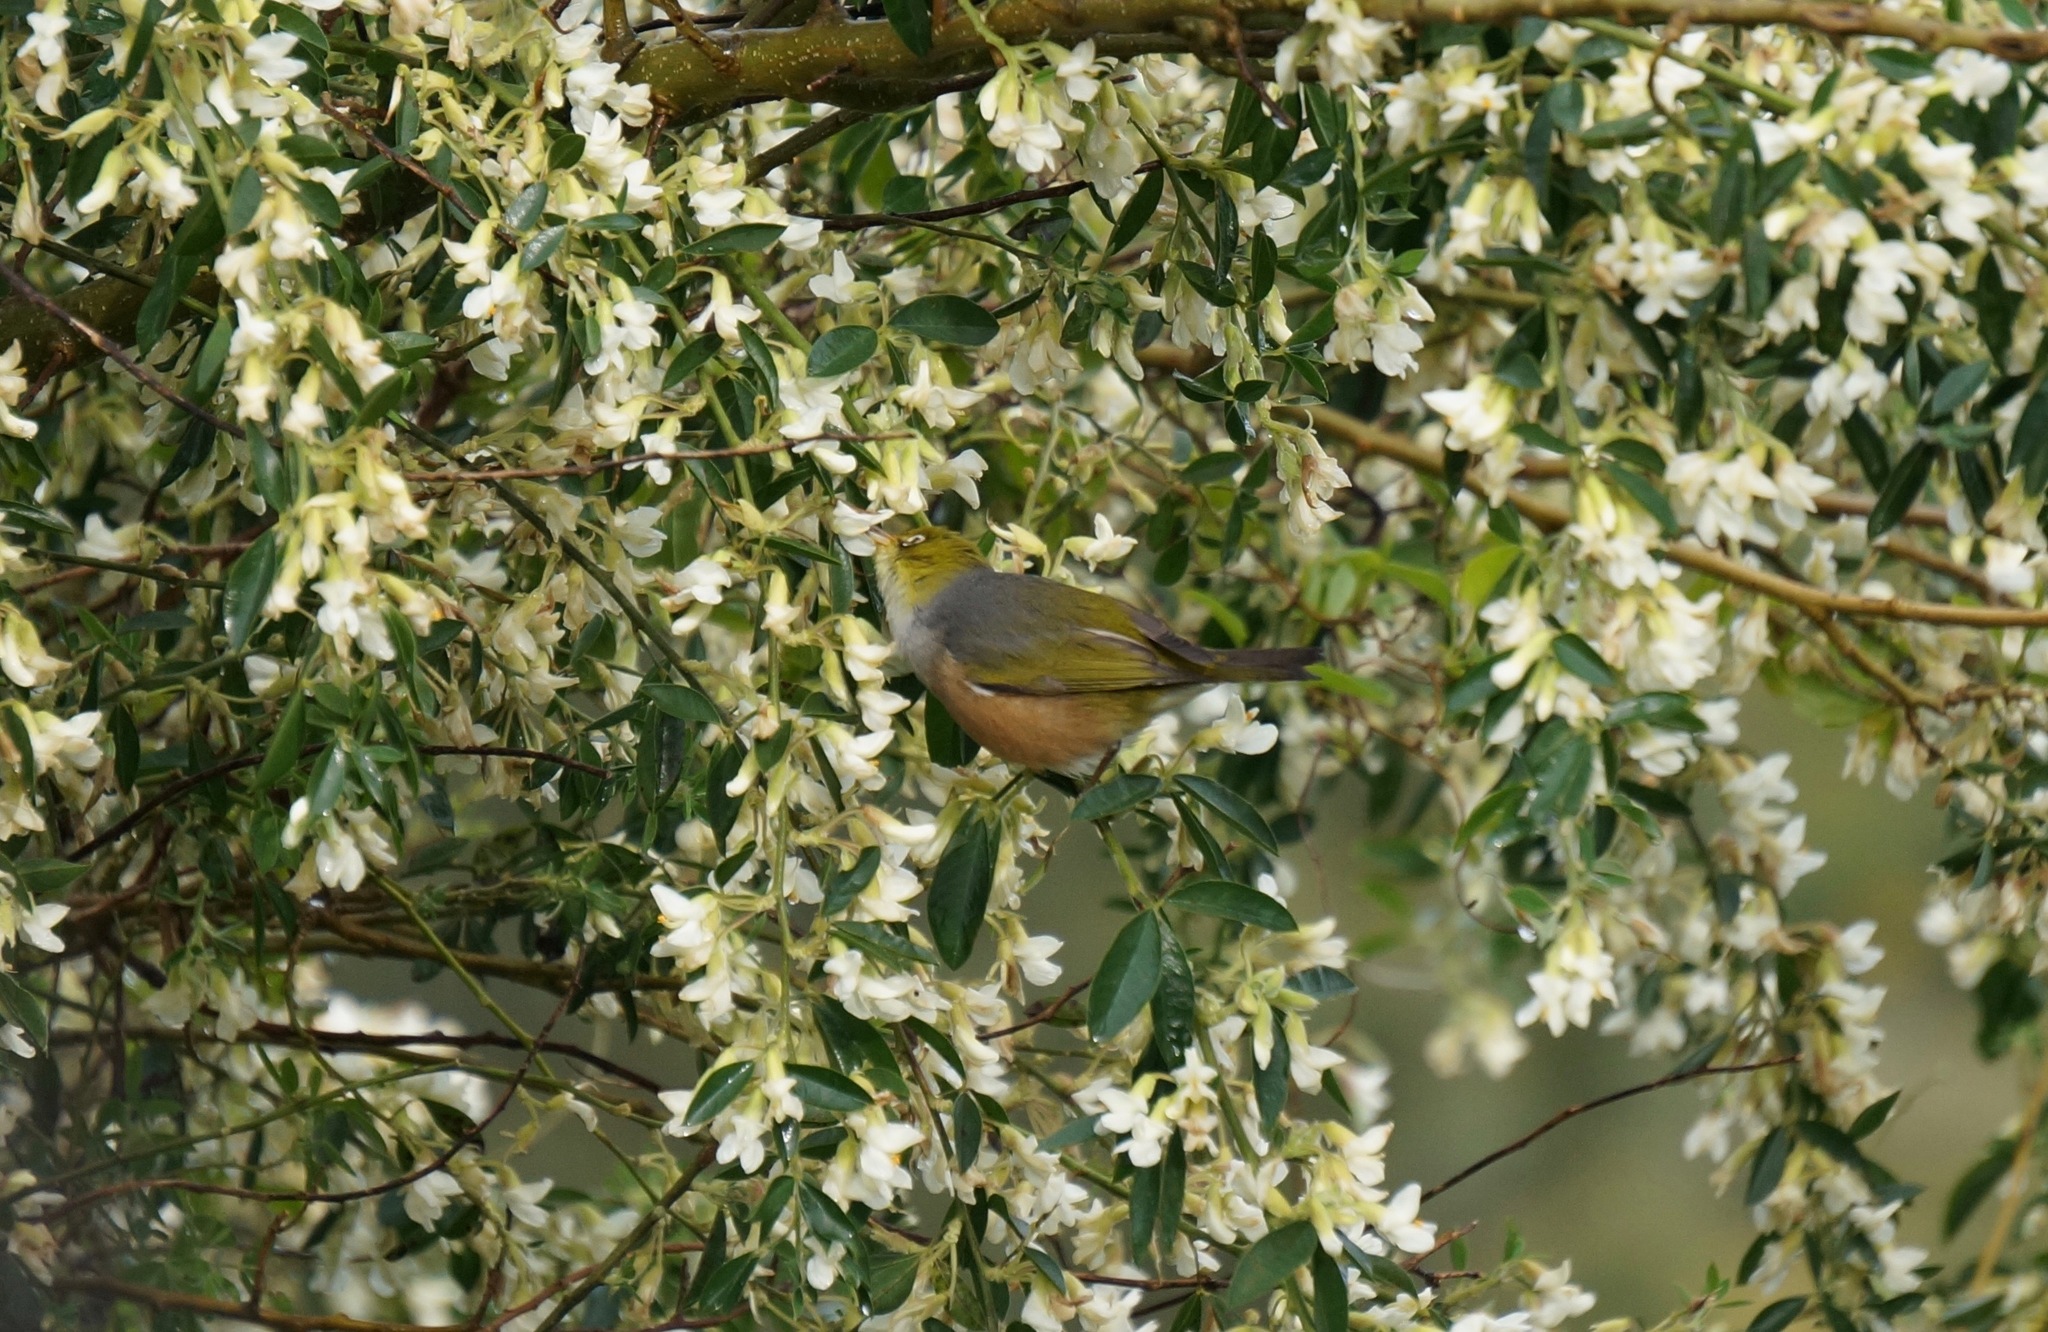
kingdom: Animalia
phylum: Chordata
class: Aves
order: Passeriformes
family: Zosteropidae
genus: Zosterops
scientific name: Zosterops lateralis
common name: Silvereye
